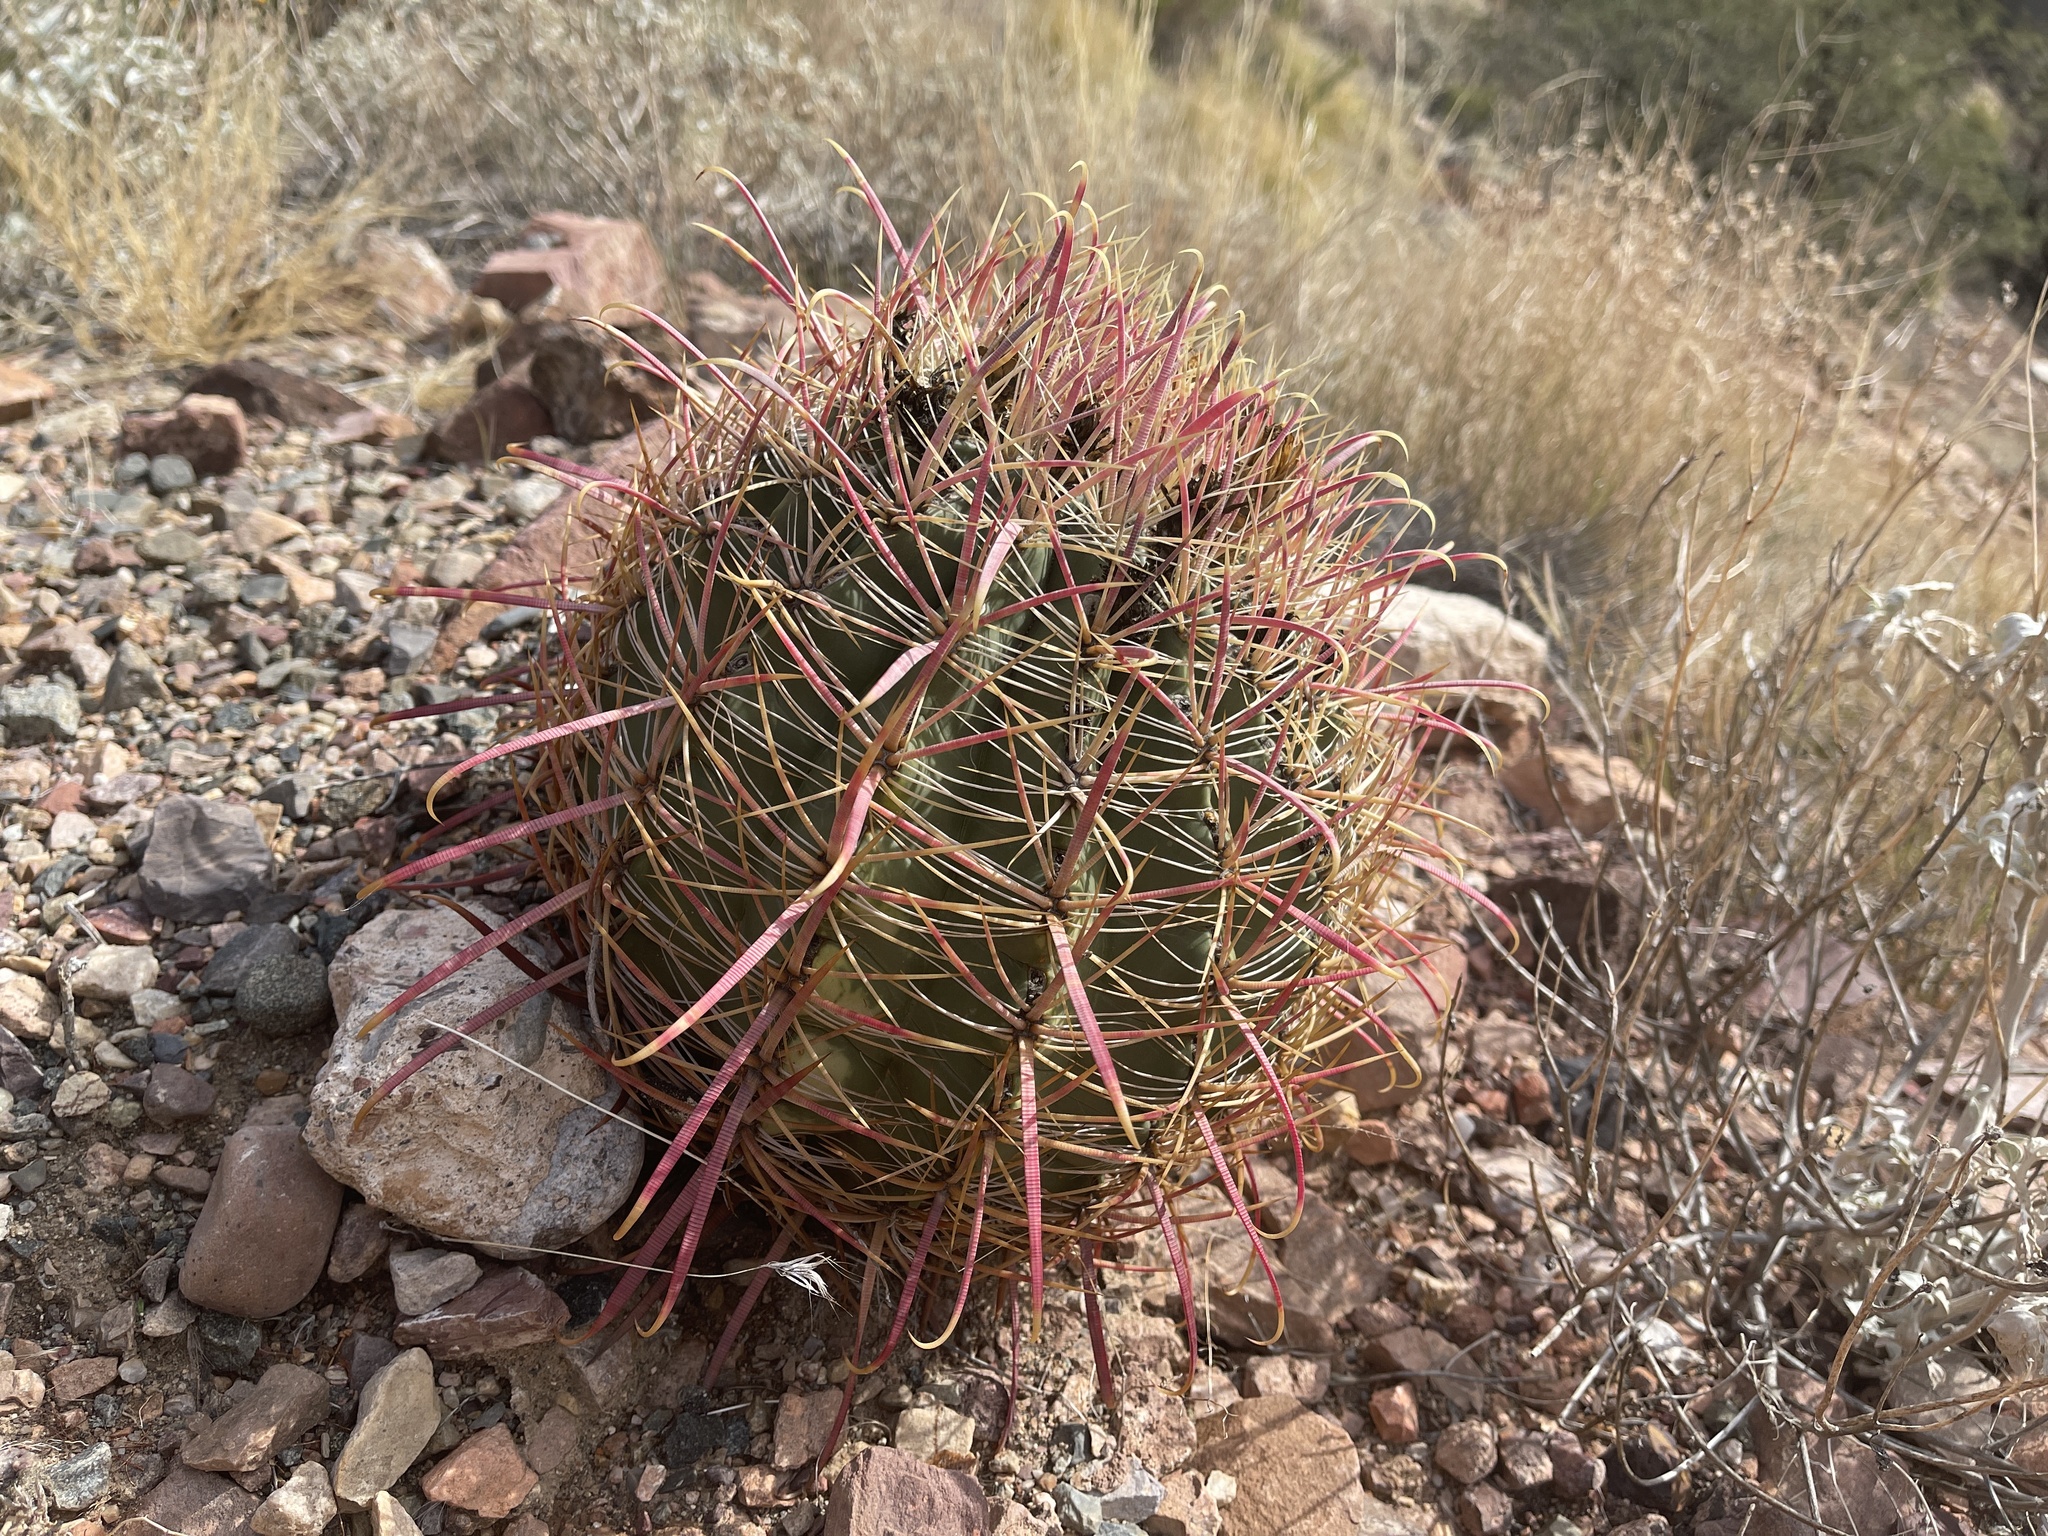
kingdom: Plantae
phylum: Tracheophyta
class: Magnoliopsida
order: Caryophyllales
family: Cactaceae
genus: Ferocactus
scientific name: Ferocactus cylindraceus
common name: California barrel cactus
